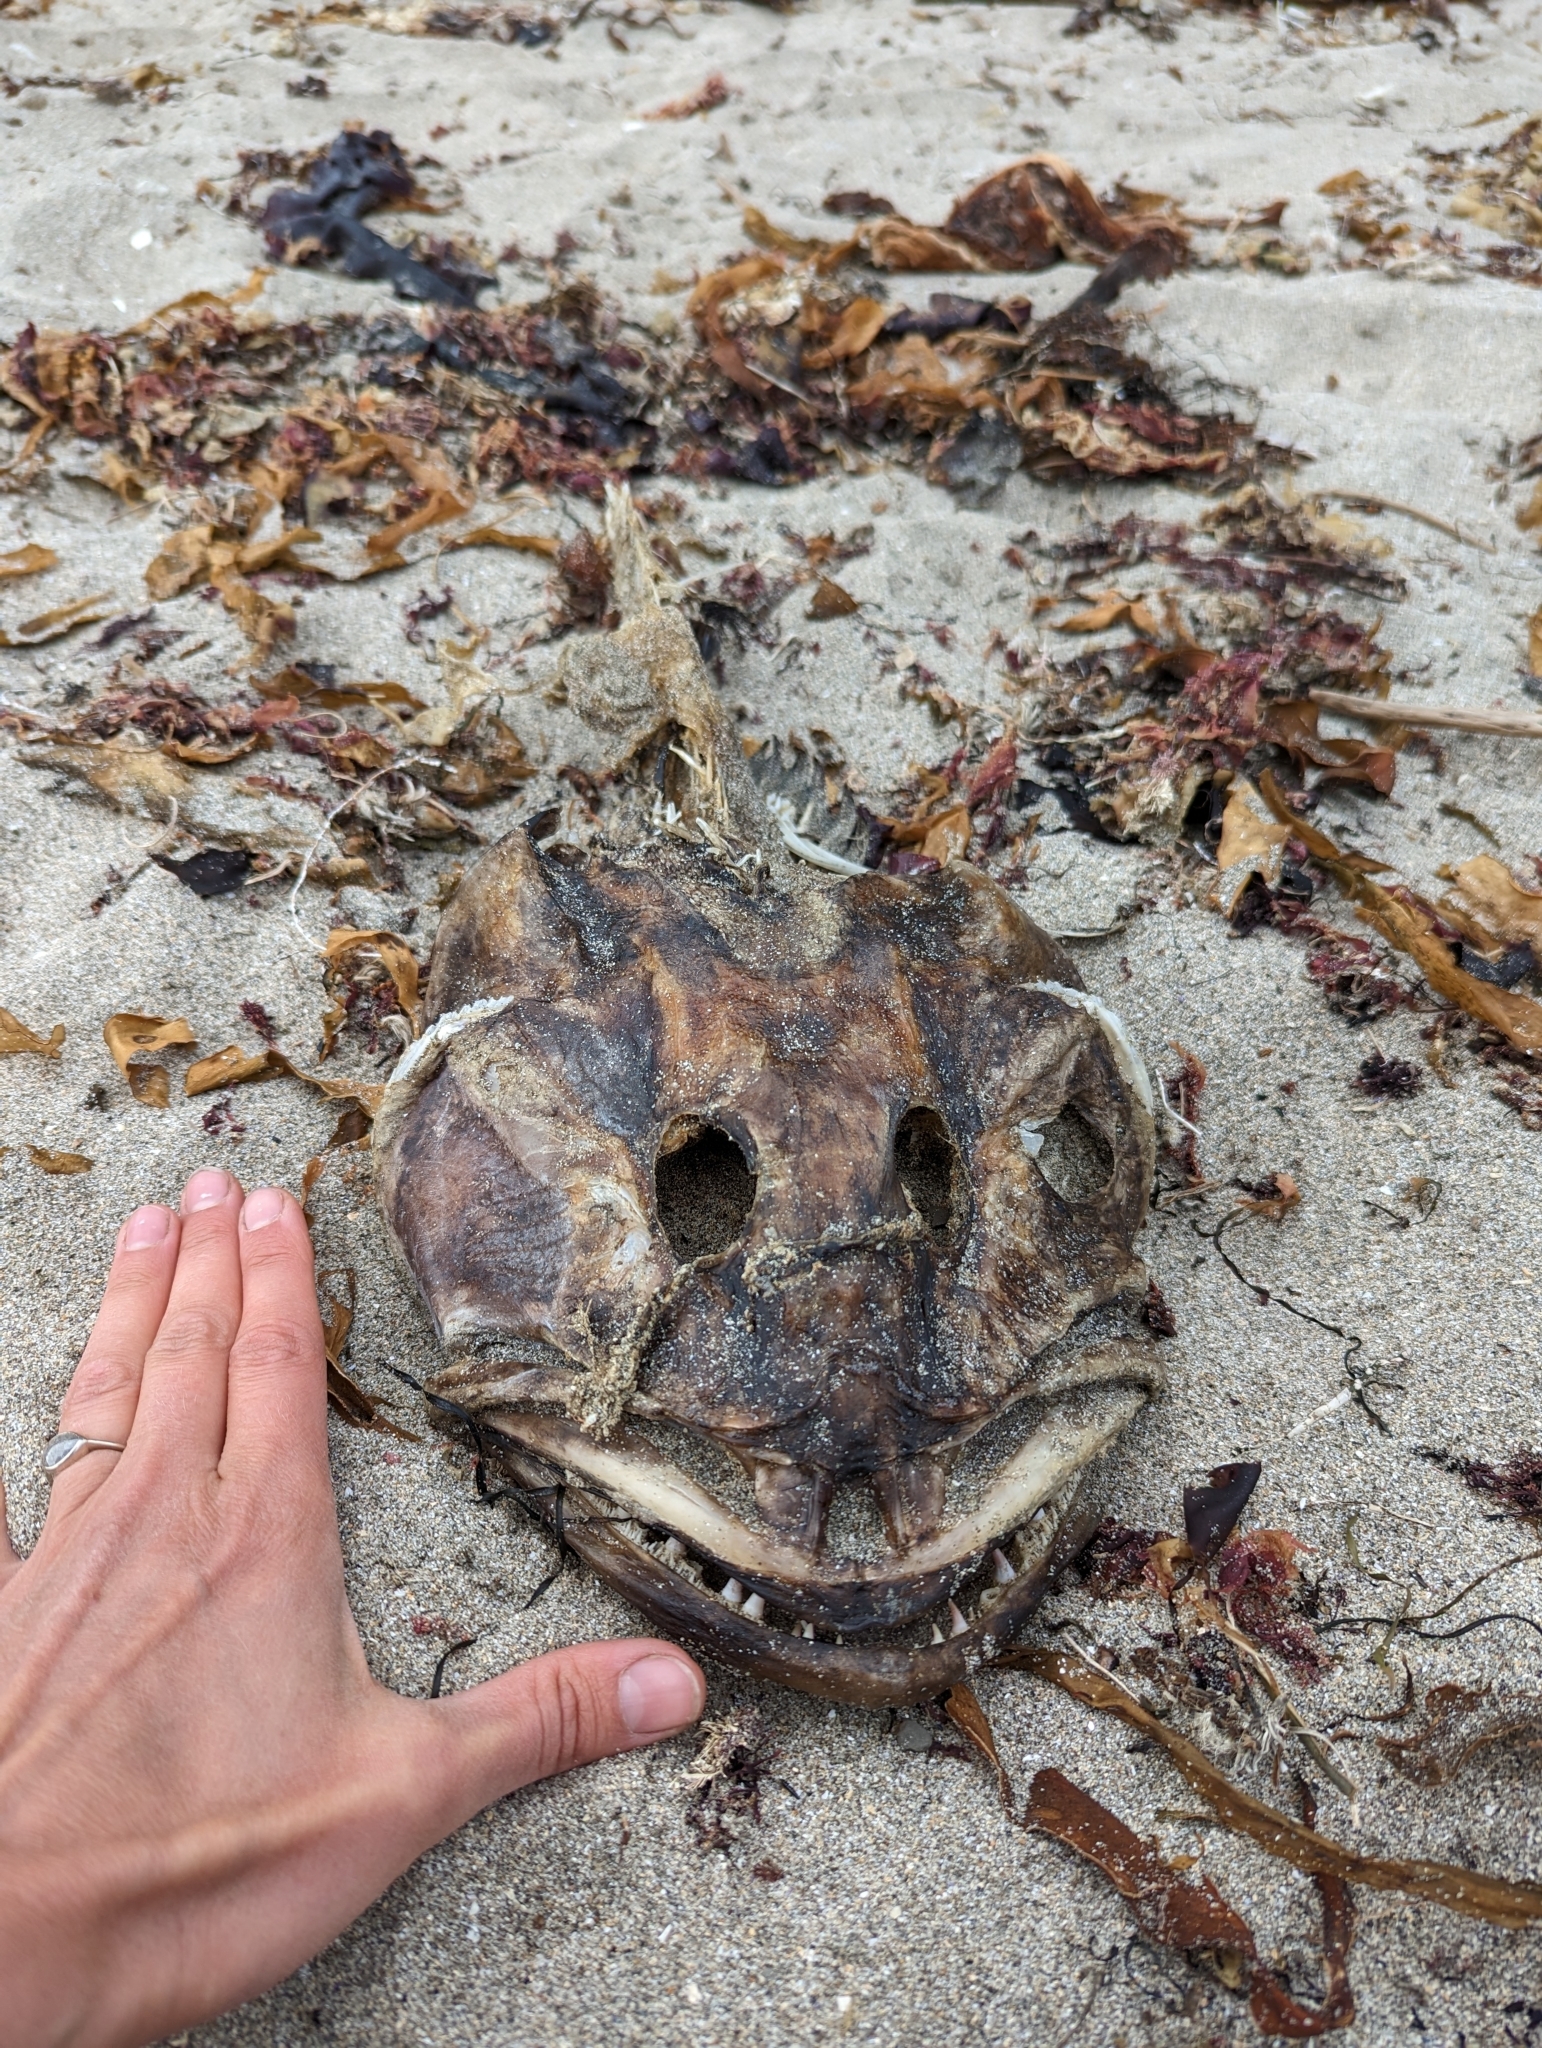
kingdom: Animalia
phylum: Chordata
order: Scorpaeniformes
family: Hexagrammidae
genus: Ophiodon
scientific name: Ophiodon elongatus
